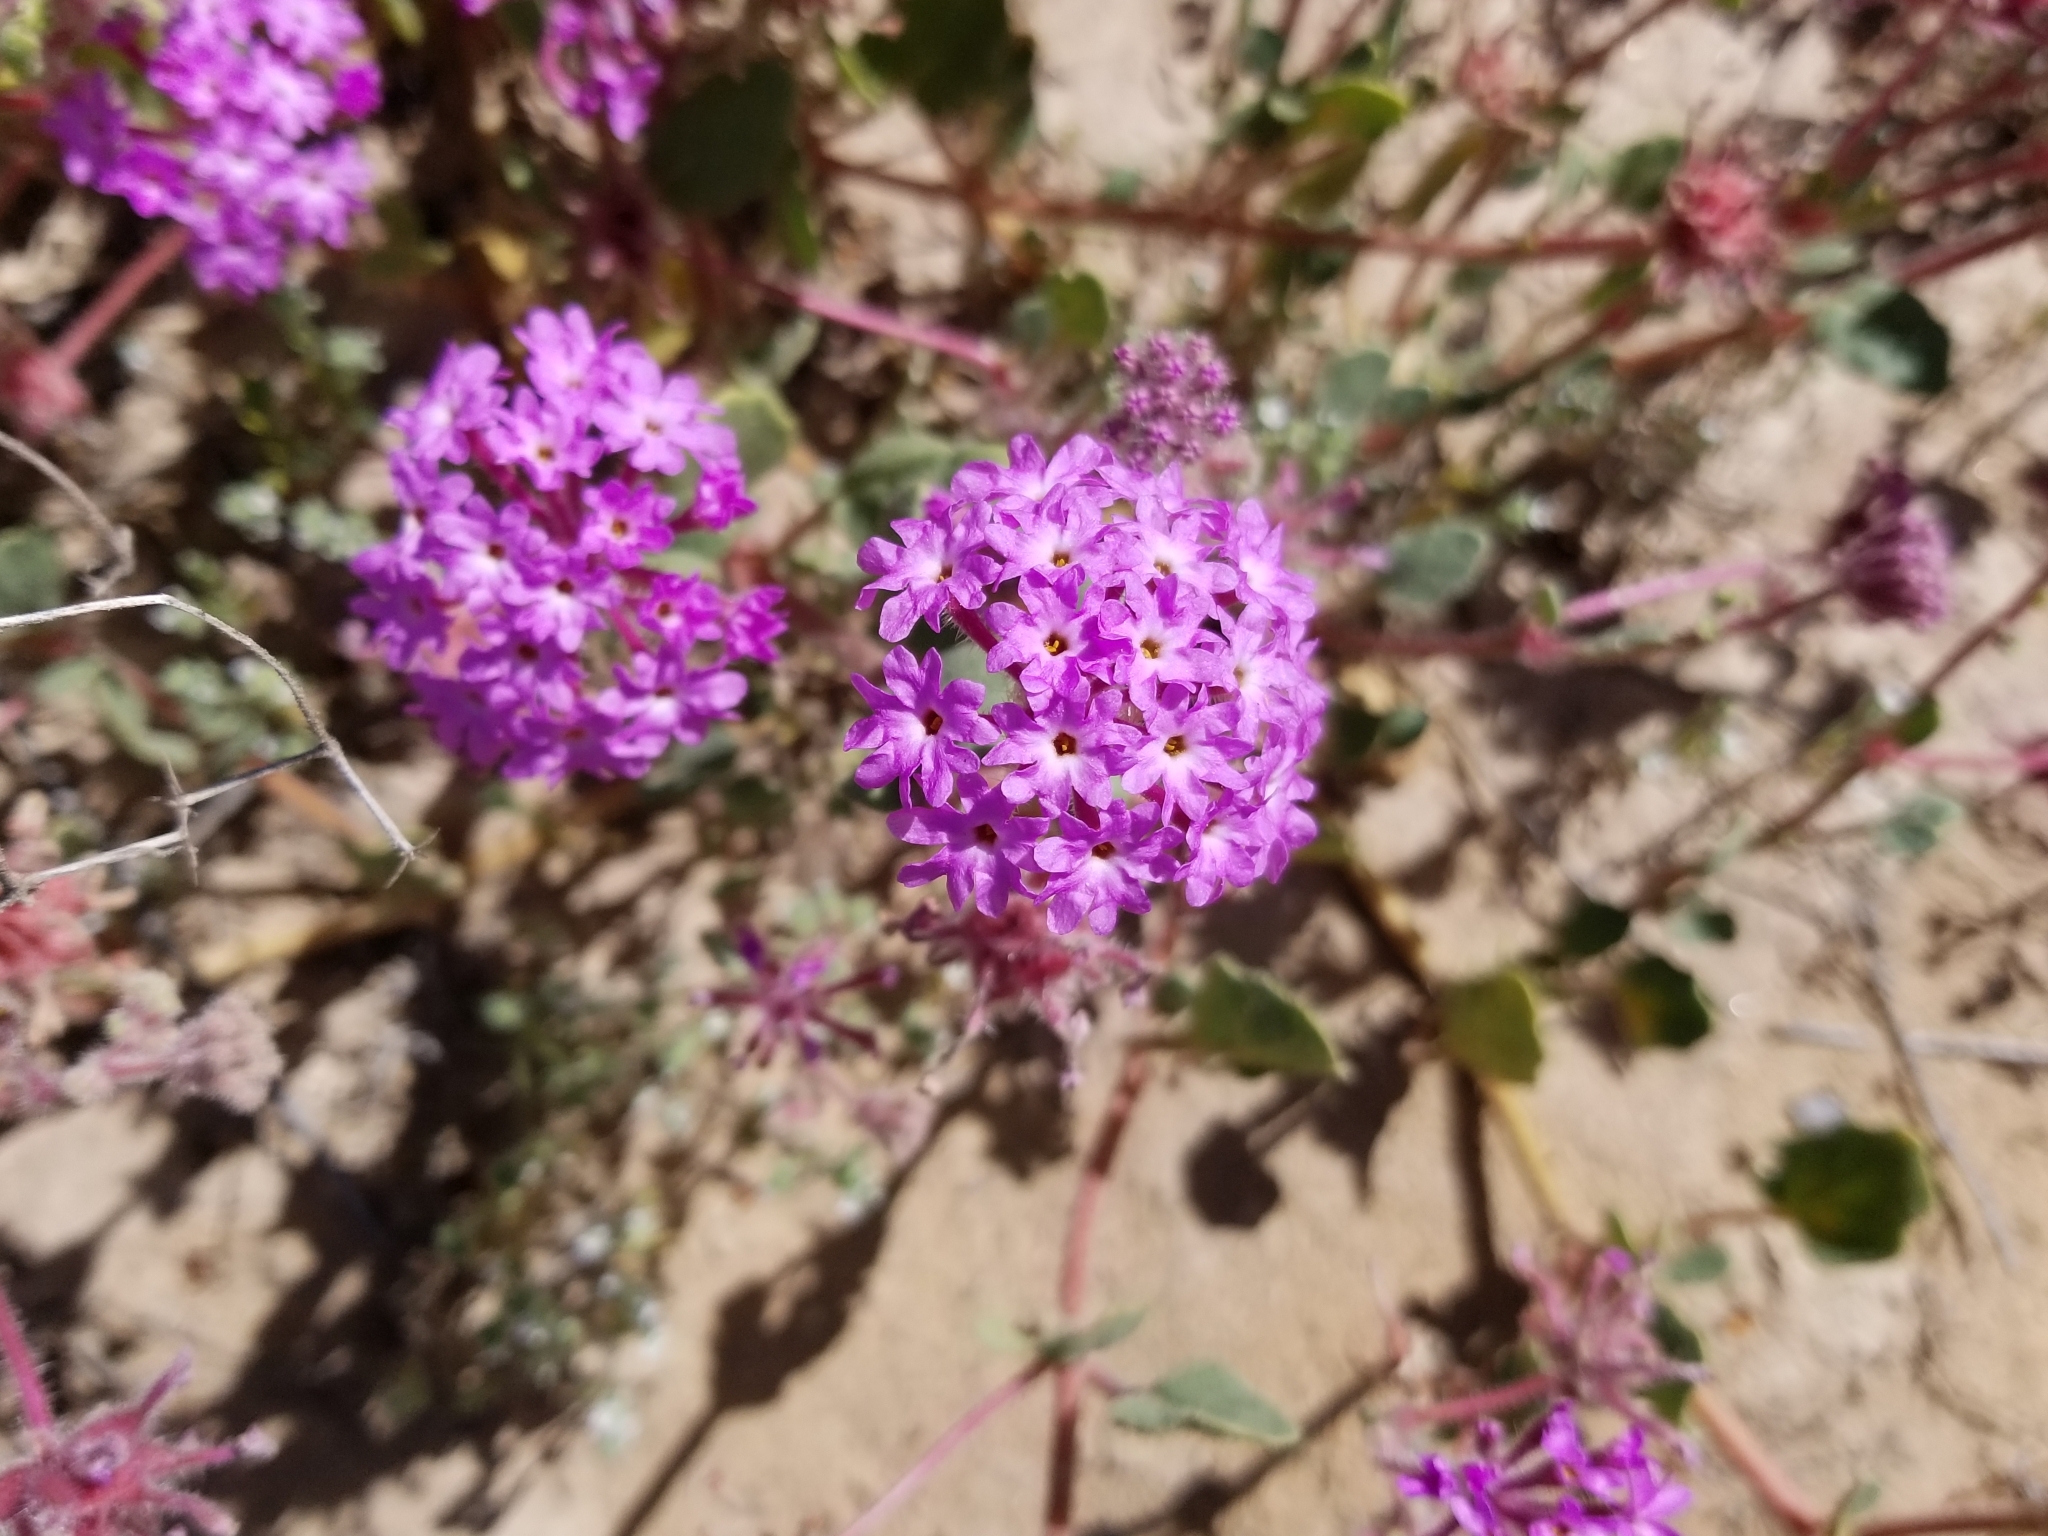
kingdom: Plantae
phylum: Tracheophyta
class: Magnoliopsida
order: Caryophyllales
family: Nyctaginaceae
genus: Abronia
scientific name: Abronia villosa
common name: Desert sand-verbena
